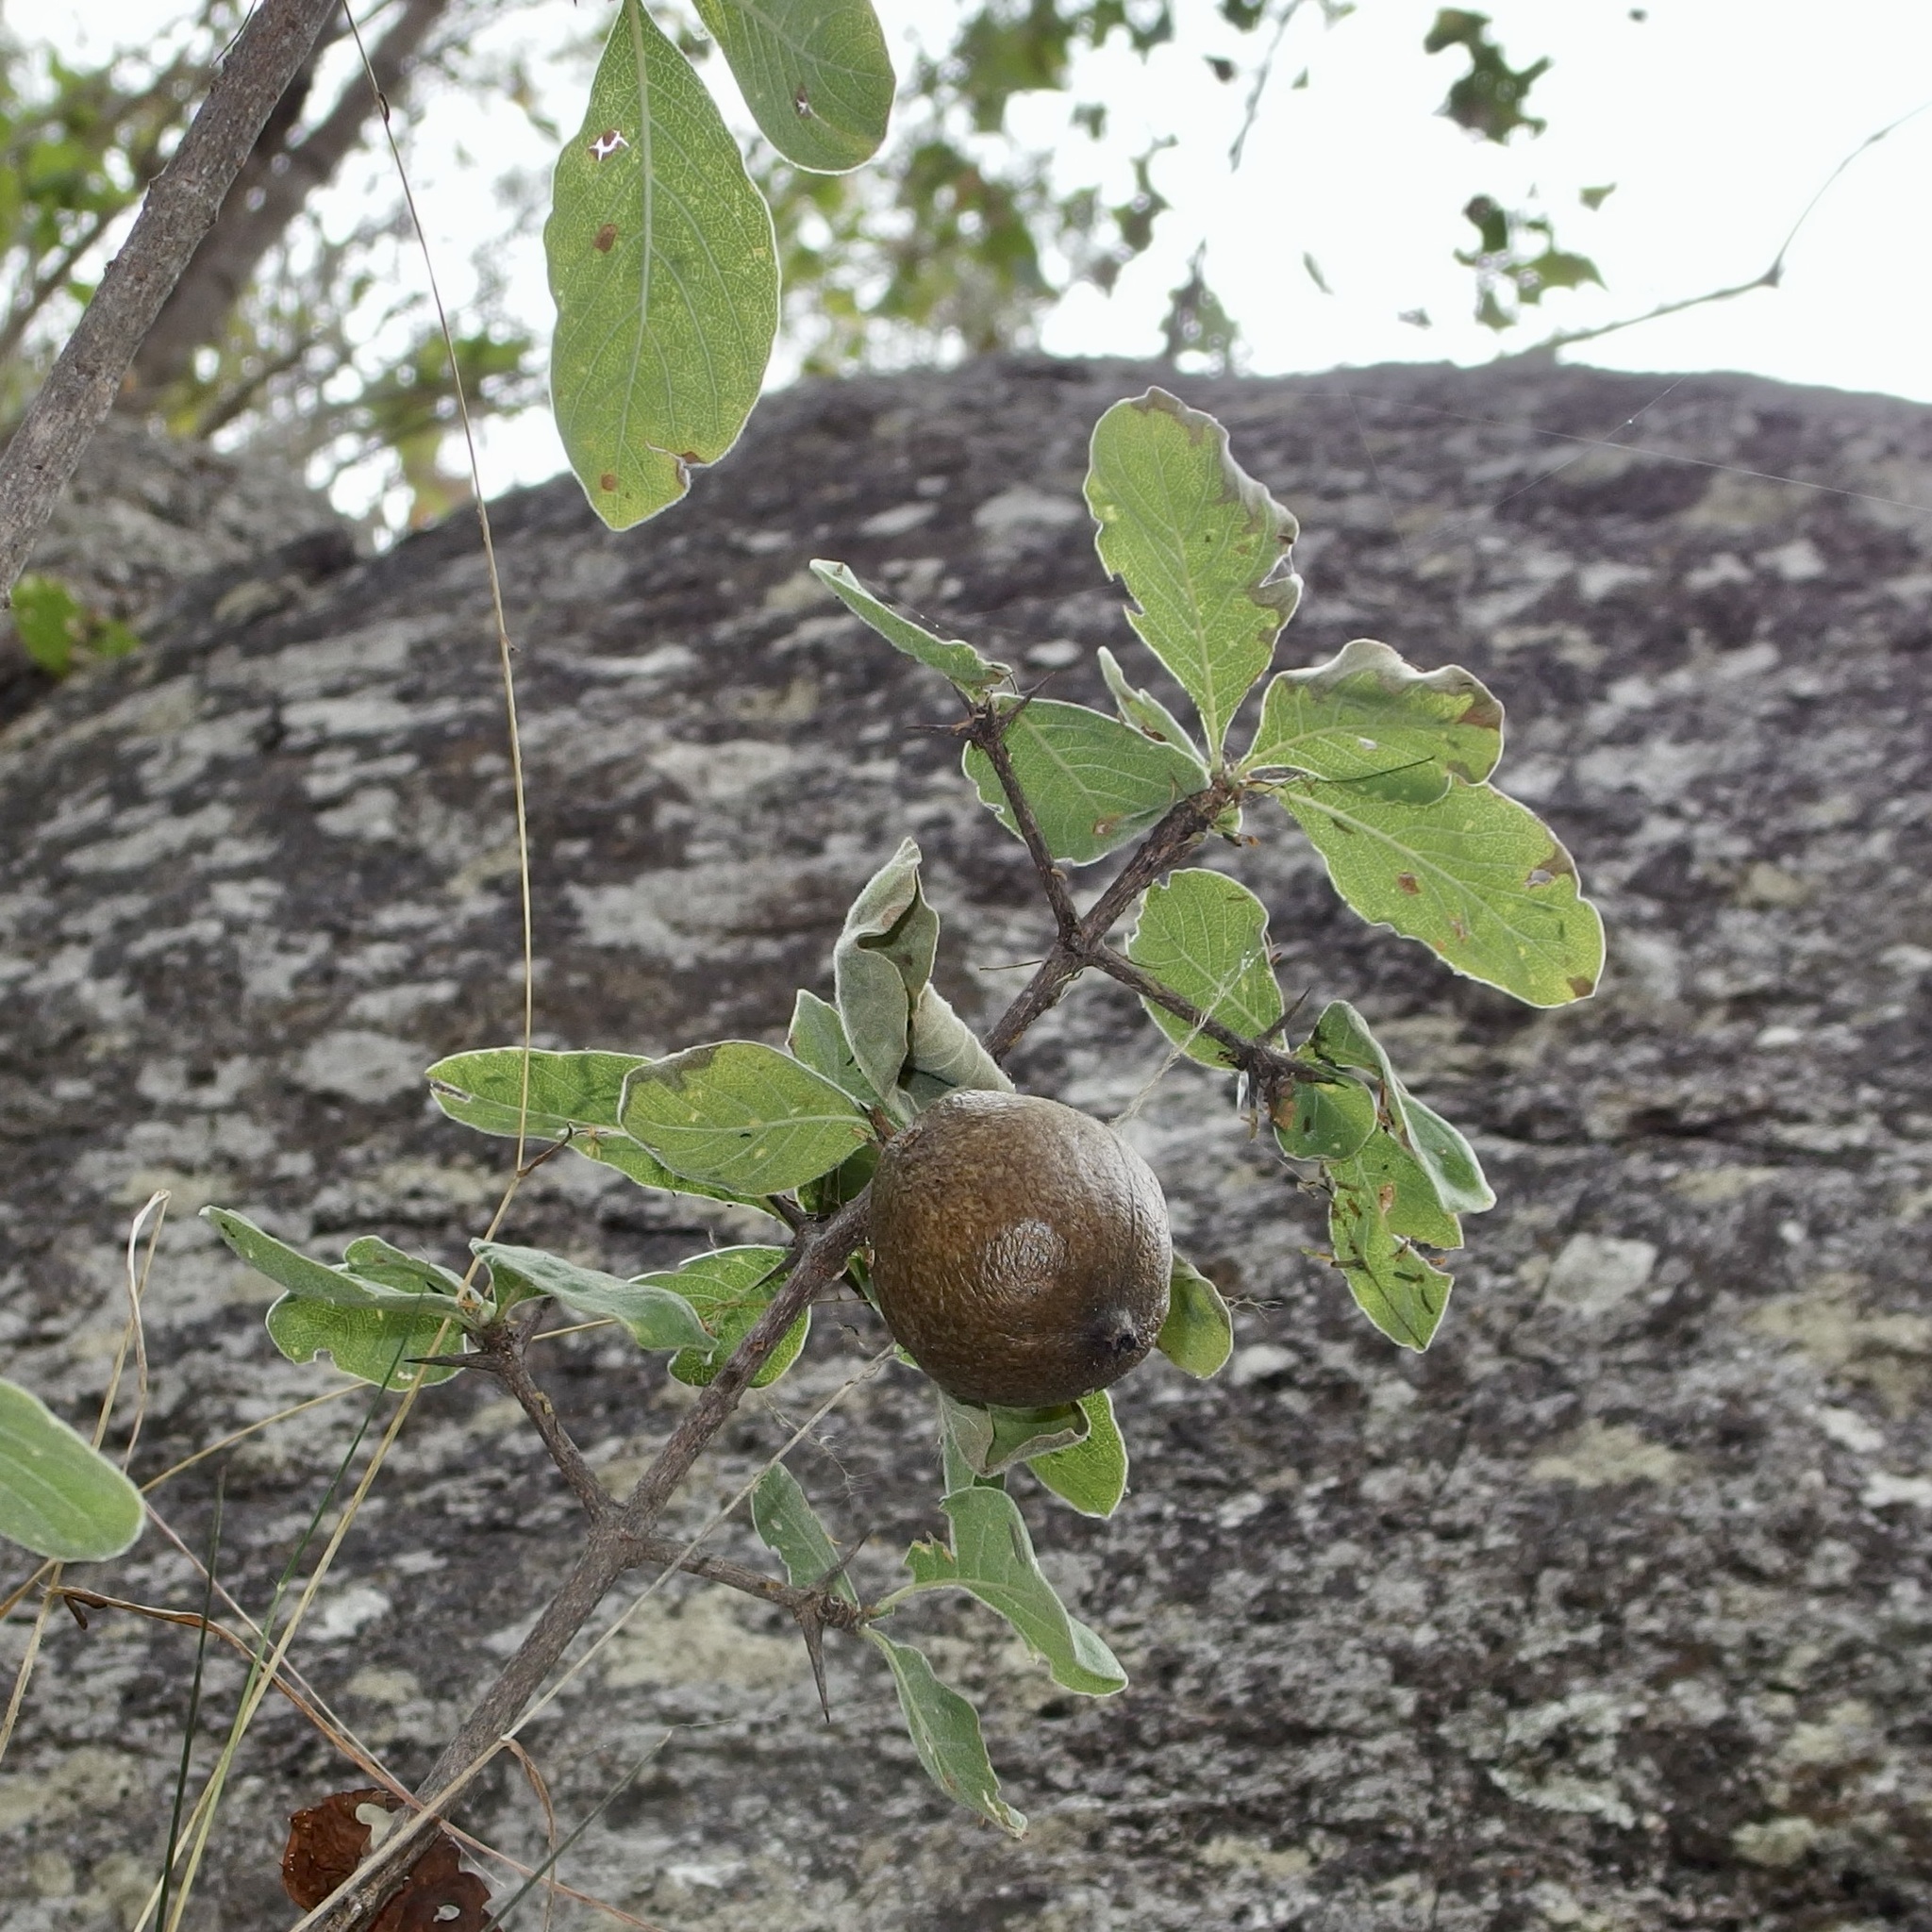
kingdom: Plantae
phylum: Tracheophyta
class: Magnoliopsida
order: Gentianales
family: Rubiaceae
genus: Randia
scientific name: Randia capitata
